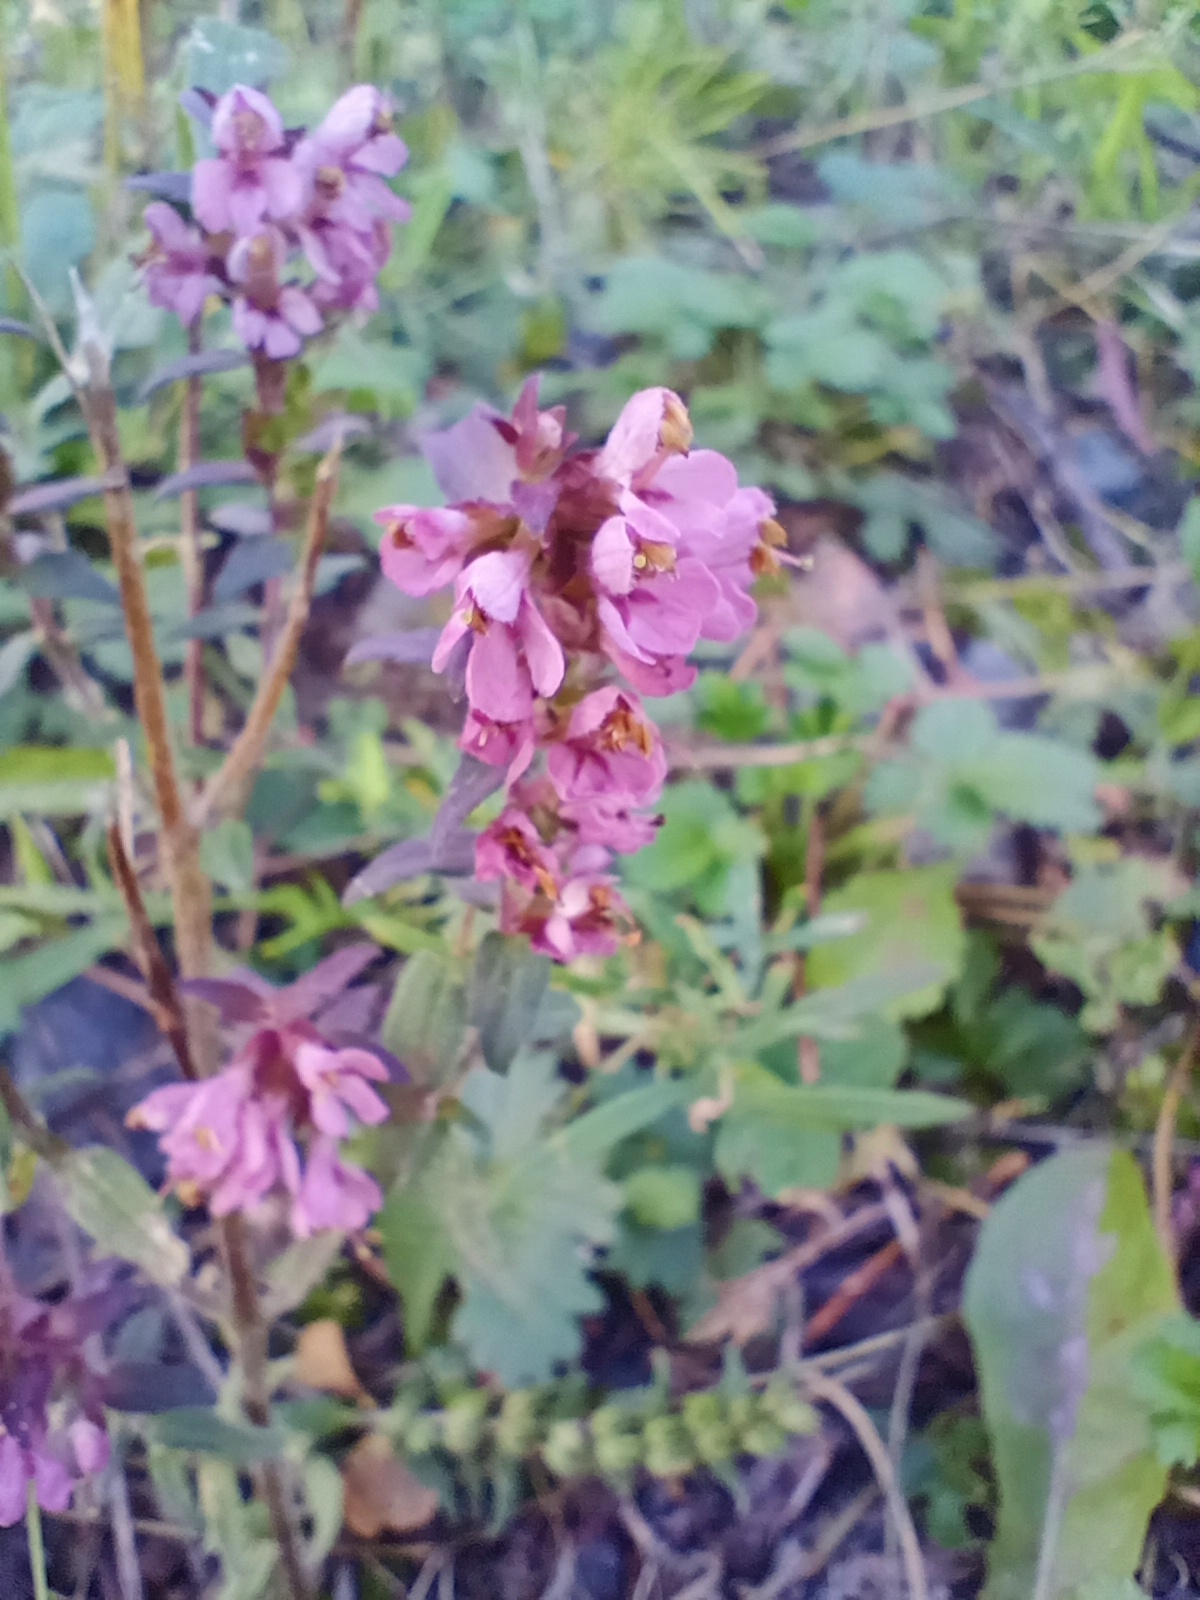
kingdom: Plantae
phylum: Tracheophyta
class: Magnoliopsida
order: Lamiales
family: Orobanchaceae
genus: Odontites
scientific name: Odontites vulgaris
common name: Broomrape
